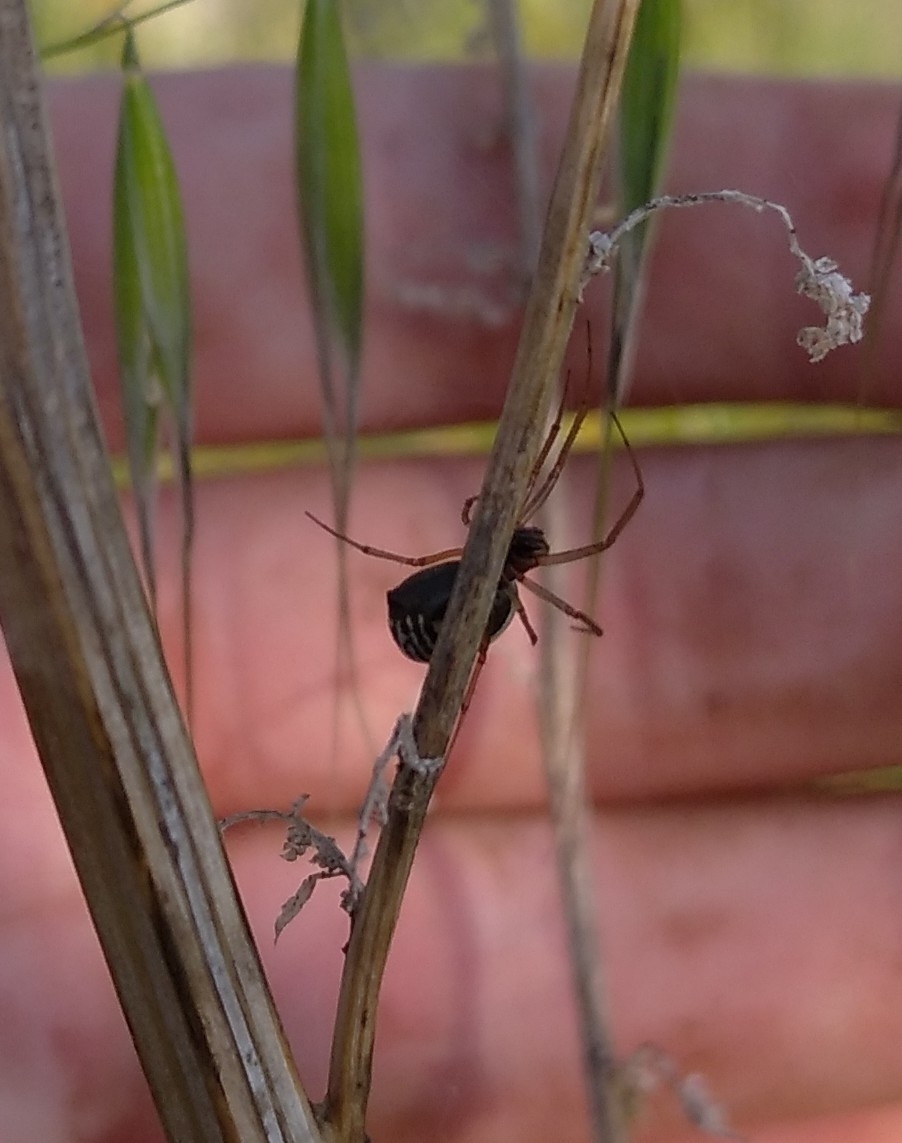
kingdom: Animalia
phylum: Arthropoda
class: Arachnida
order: Araneae
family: Linyphiidae
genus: Frontinellina
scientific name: Frontinellina frutetorum
